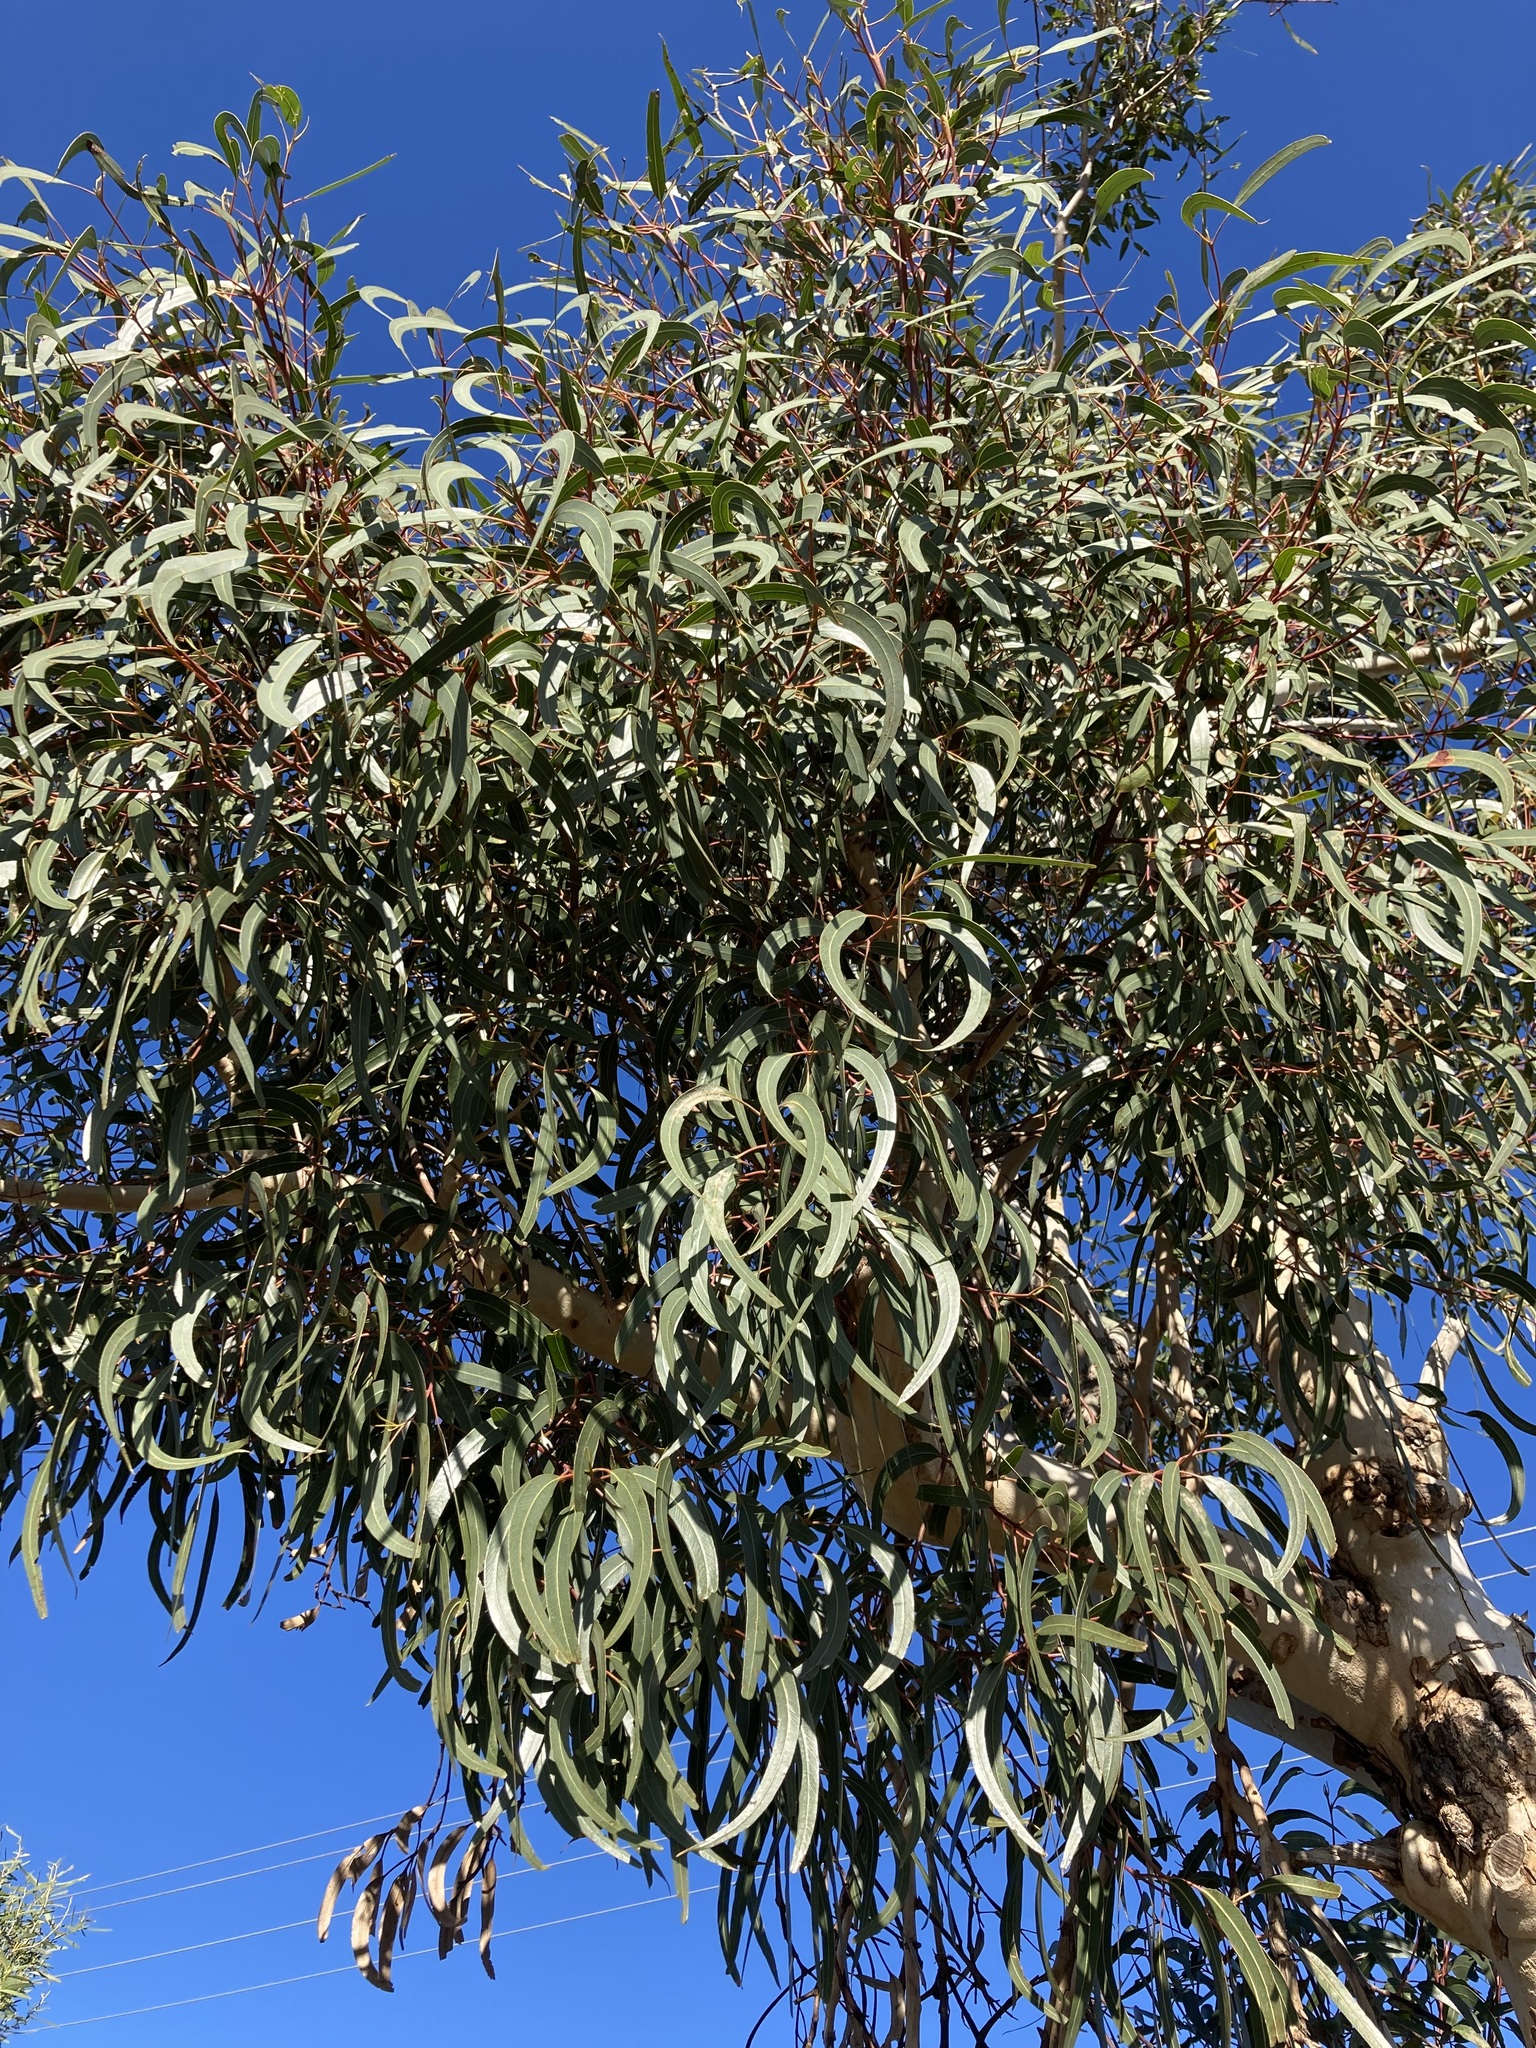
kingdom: Plantae
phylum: Tracheophyta
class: Magnoliopsida
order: Myrtales
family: Myrtaceae
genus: Eucalyptus
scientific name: Eucalyptus erythrocorys
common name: Bookara gum
